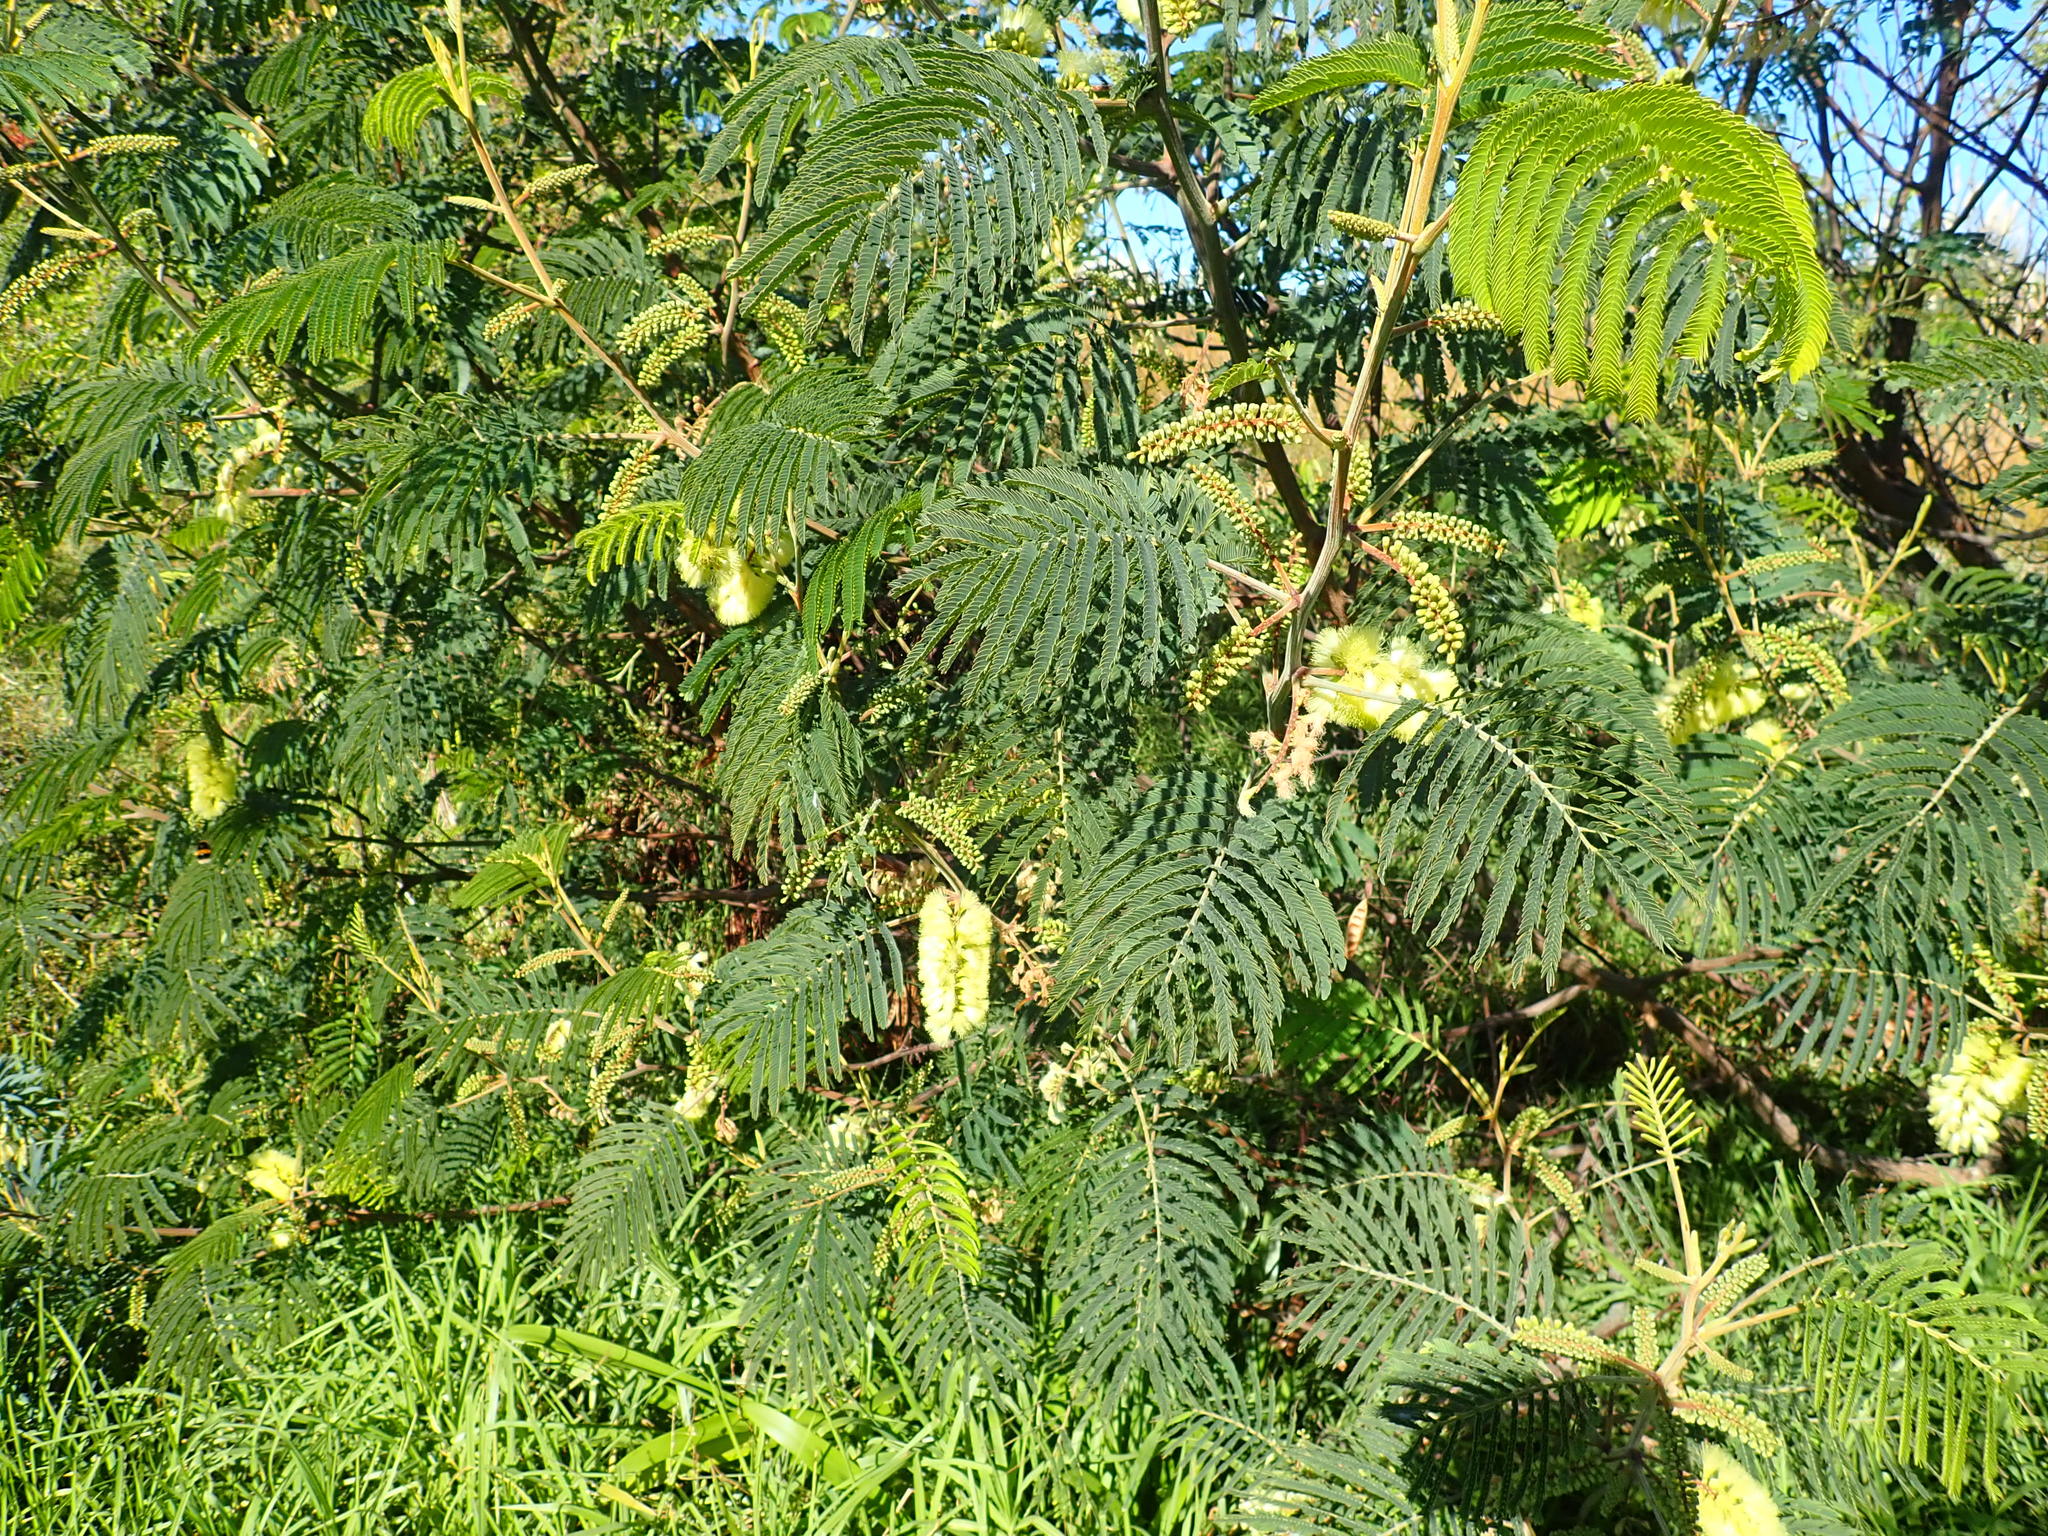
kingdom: Plantae
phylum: Tracheophyta
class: Magnoliopsida
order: Fabales
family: Fabaceae
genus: Paraserianthes
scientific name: Paraserianthes lophantha
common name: Plume albizia
